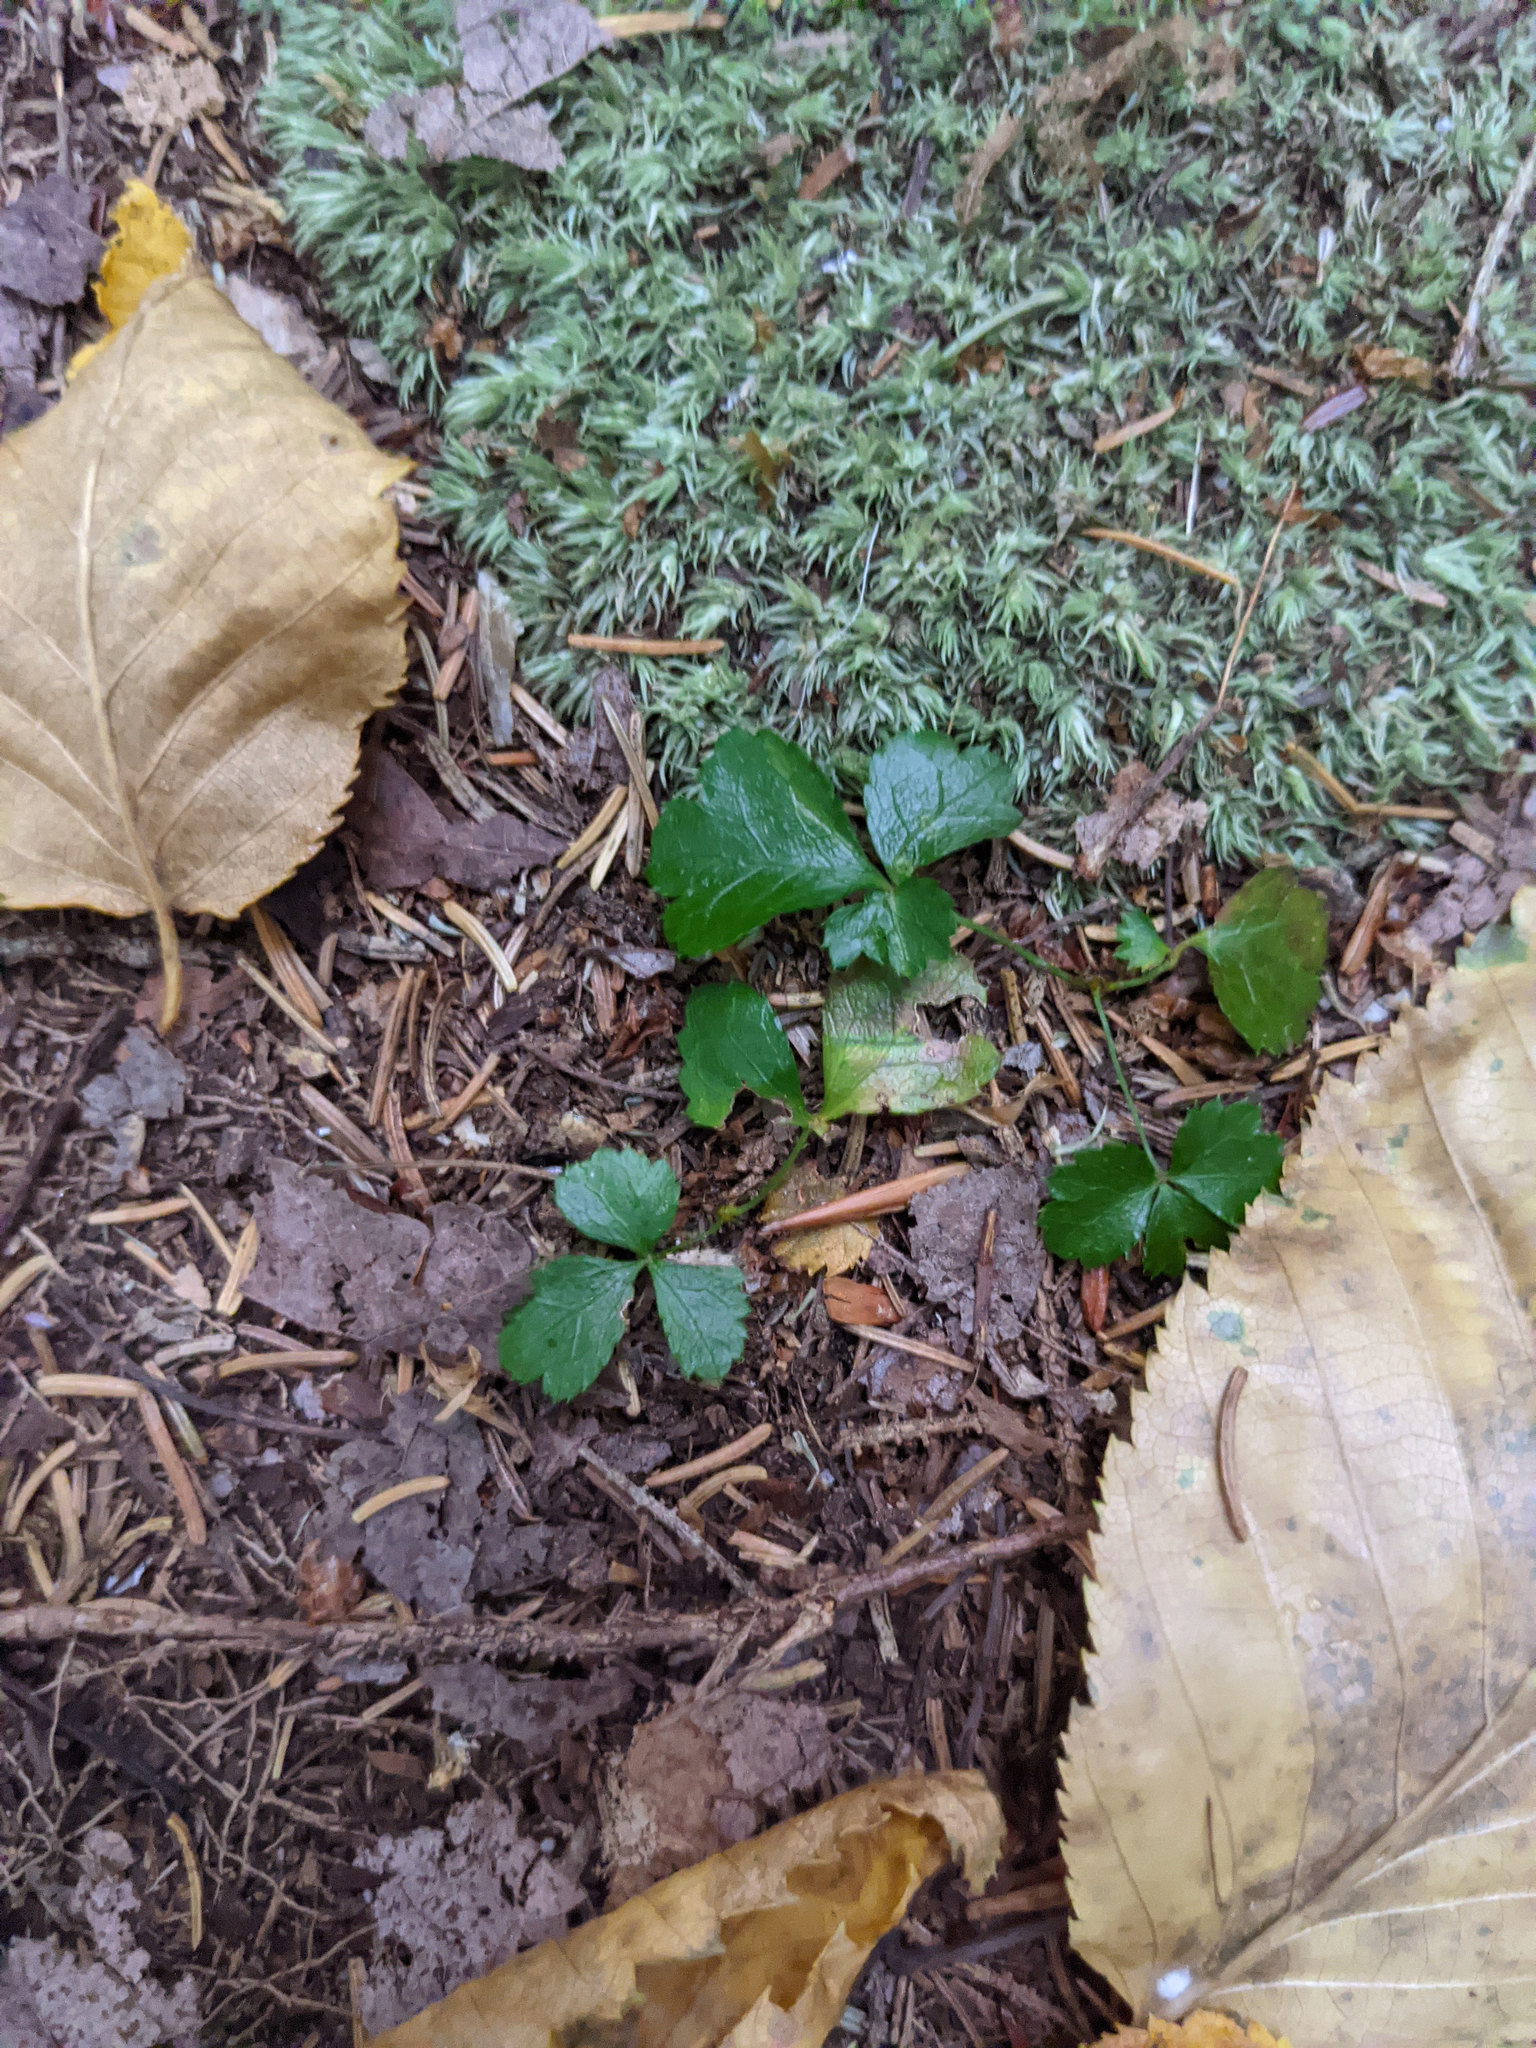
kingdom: Plantae
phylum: Tracheophyta
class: Magnoliopsida
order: Ranunculales
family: Ranunculaceae
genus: Coptis
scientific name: Coptis trifolia
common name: Canker-root
